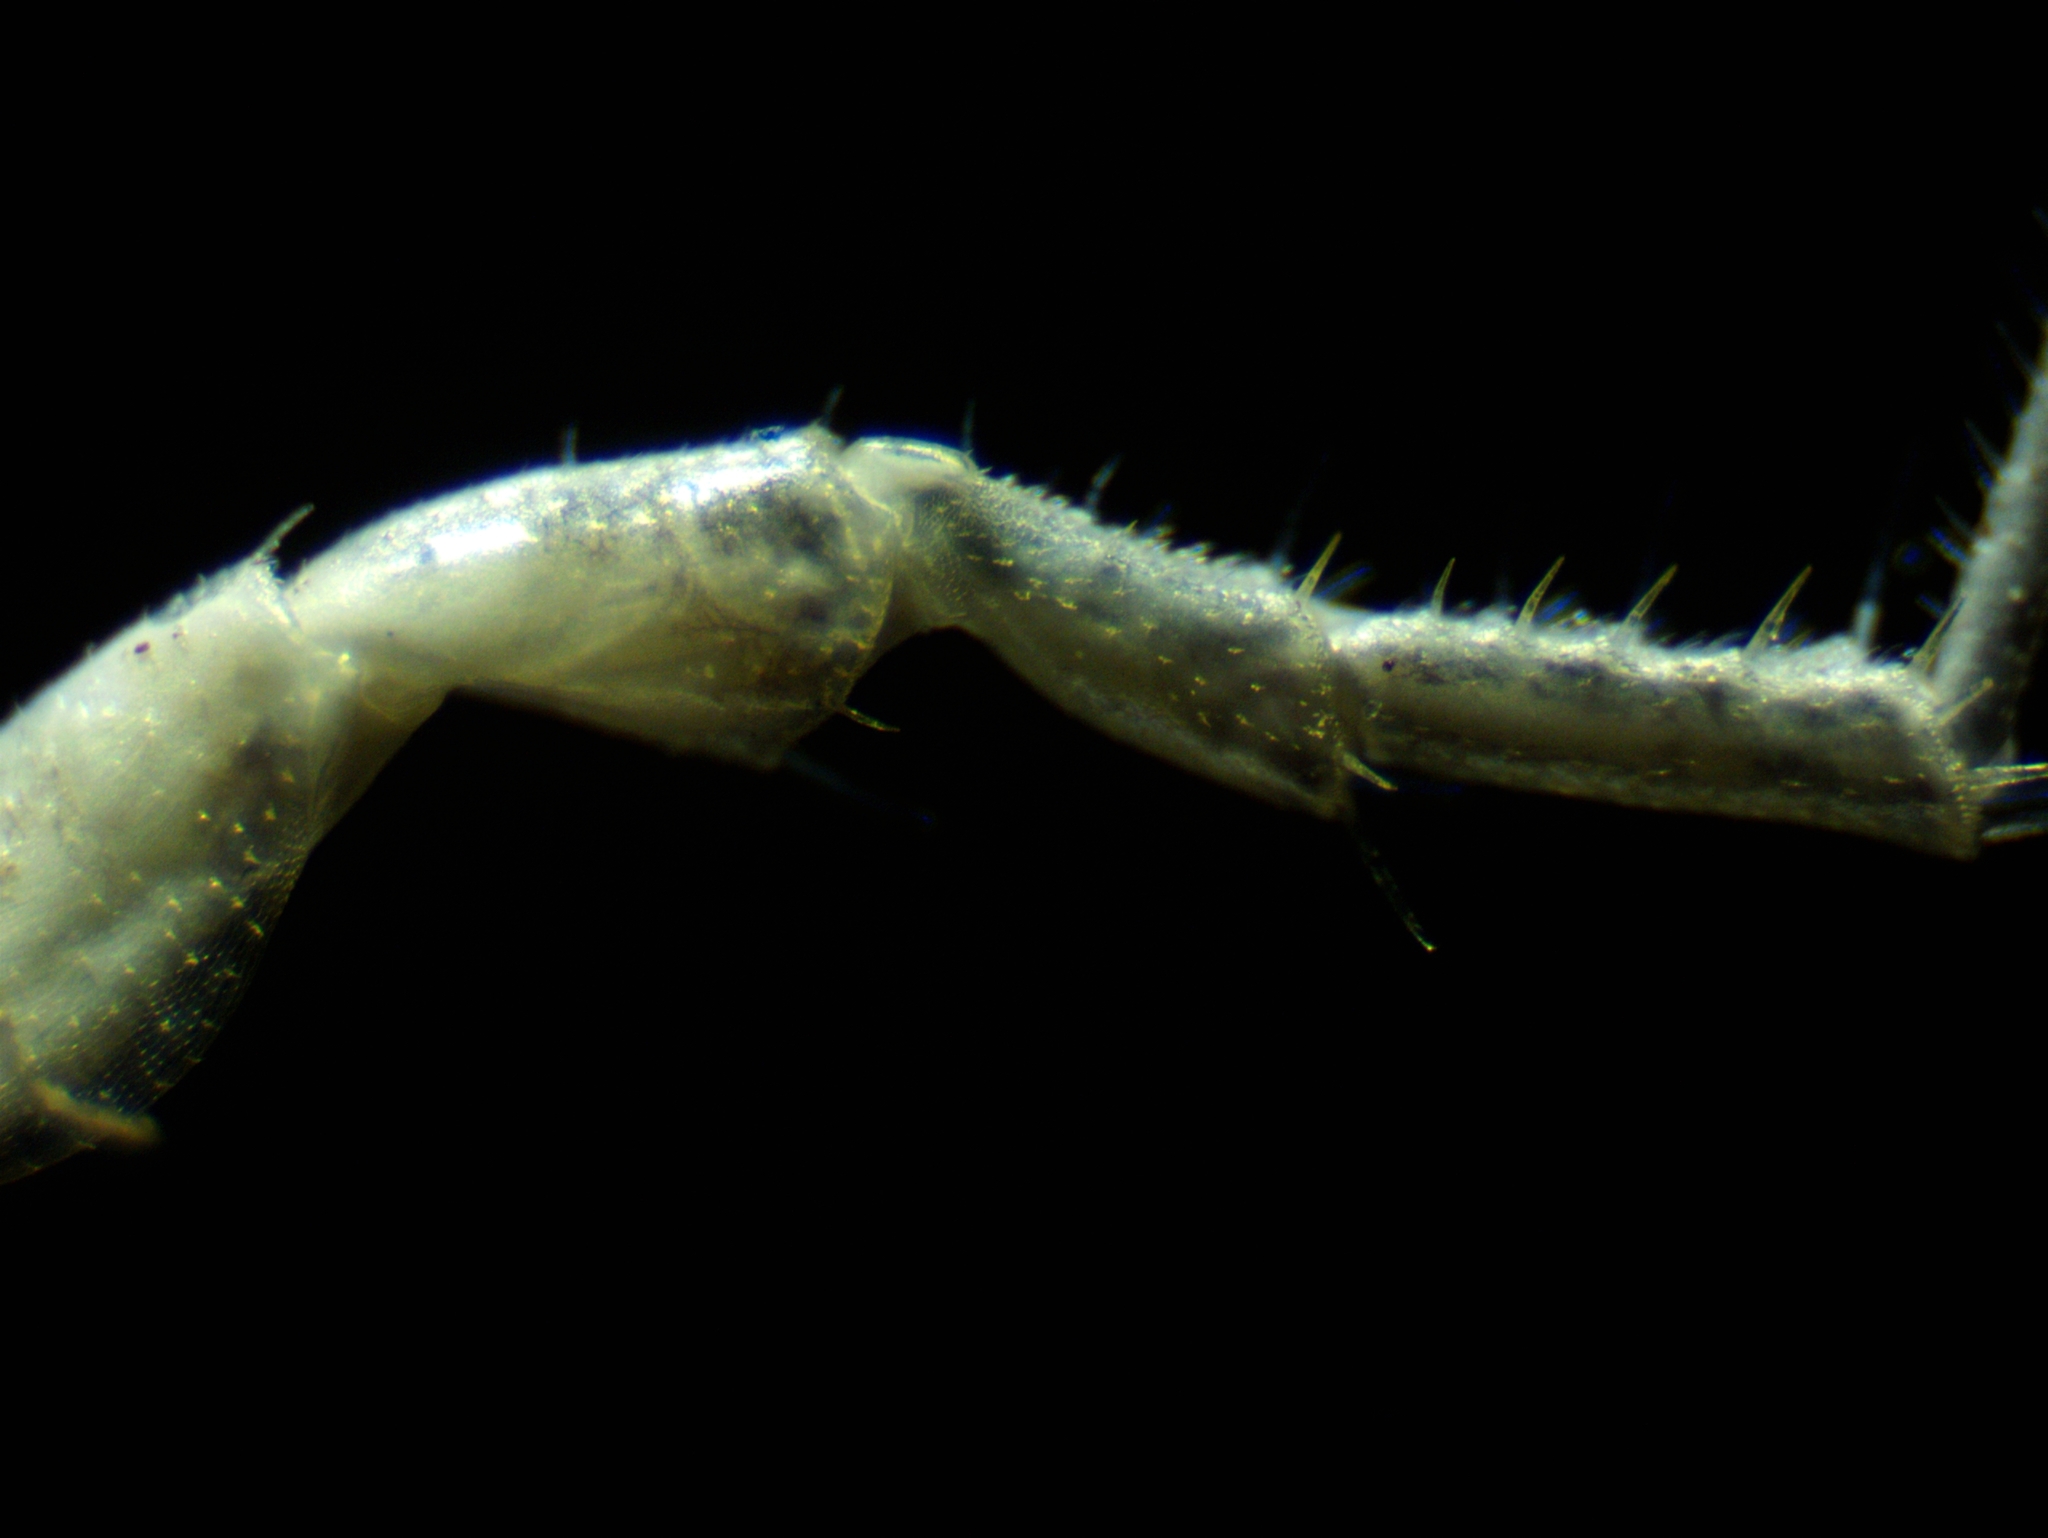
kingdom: Animalia
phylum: Arthropoda
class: Malacostraca
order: Isopoda
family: Philosciidae
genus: Philoscia
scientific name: Philoscia muscorum
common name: Common striped woodlouse
